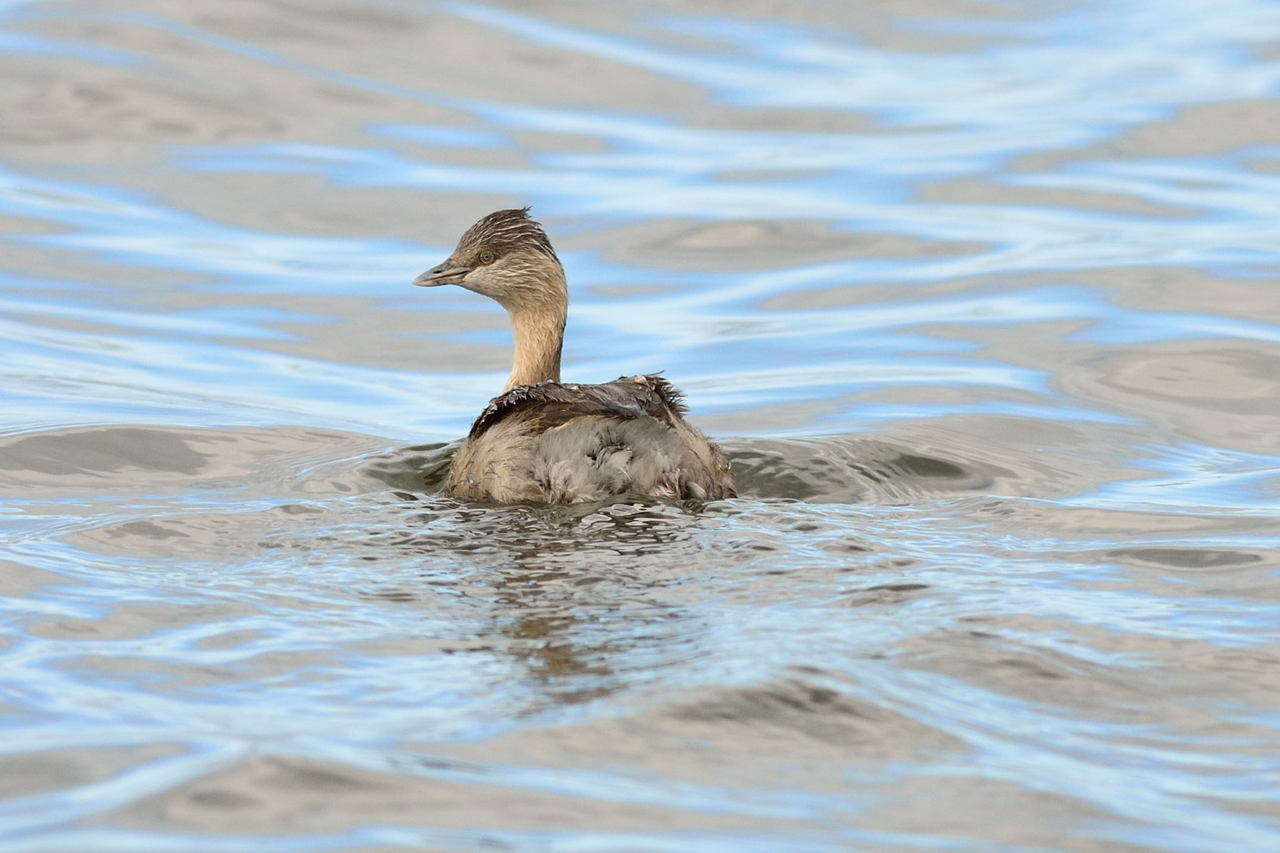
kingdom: Animalia
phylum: Chordata
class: Aves
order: Podicipediformes
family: Podicipedidae
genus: Poliocephalus
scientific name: Poliocephalus poliocephalus
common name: Hoary-headed grebe
